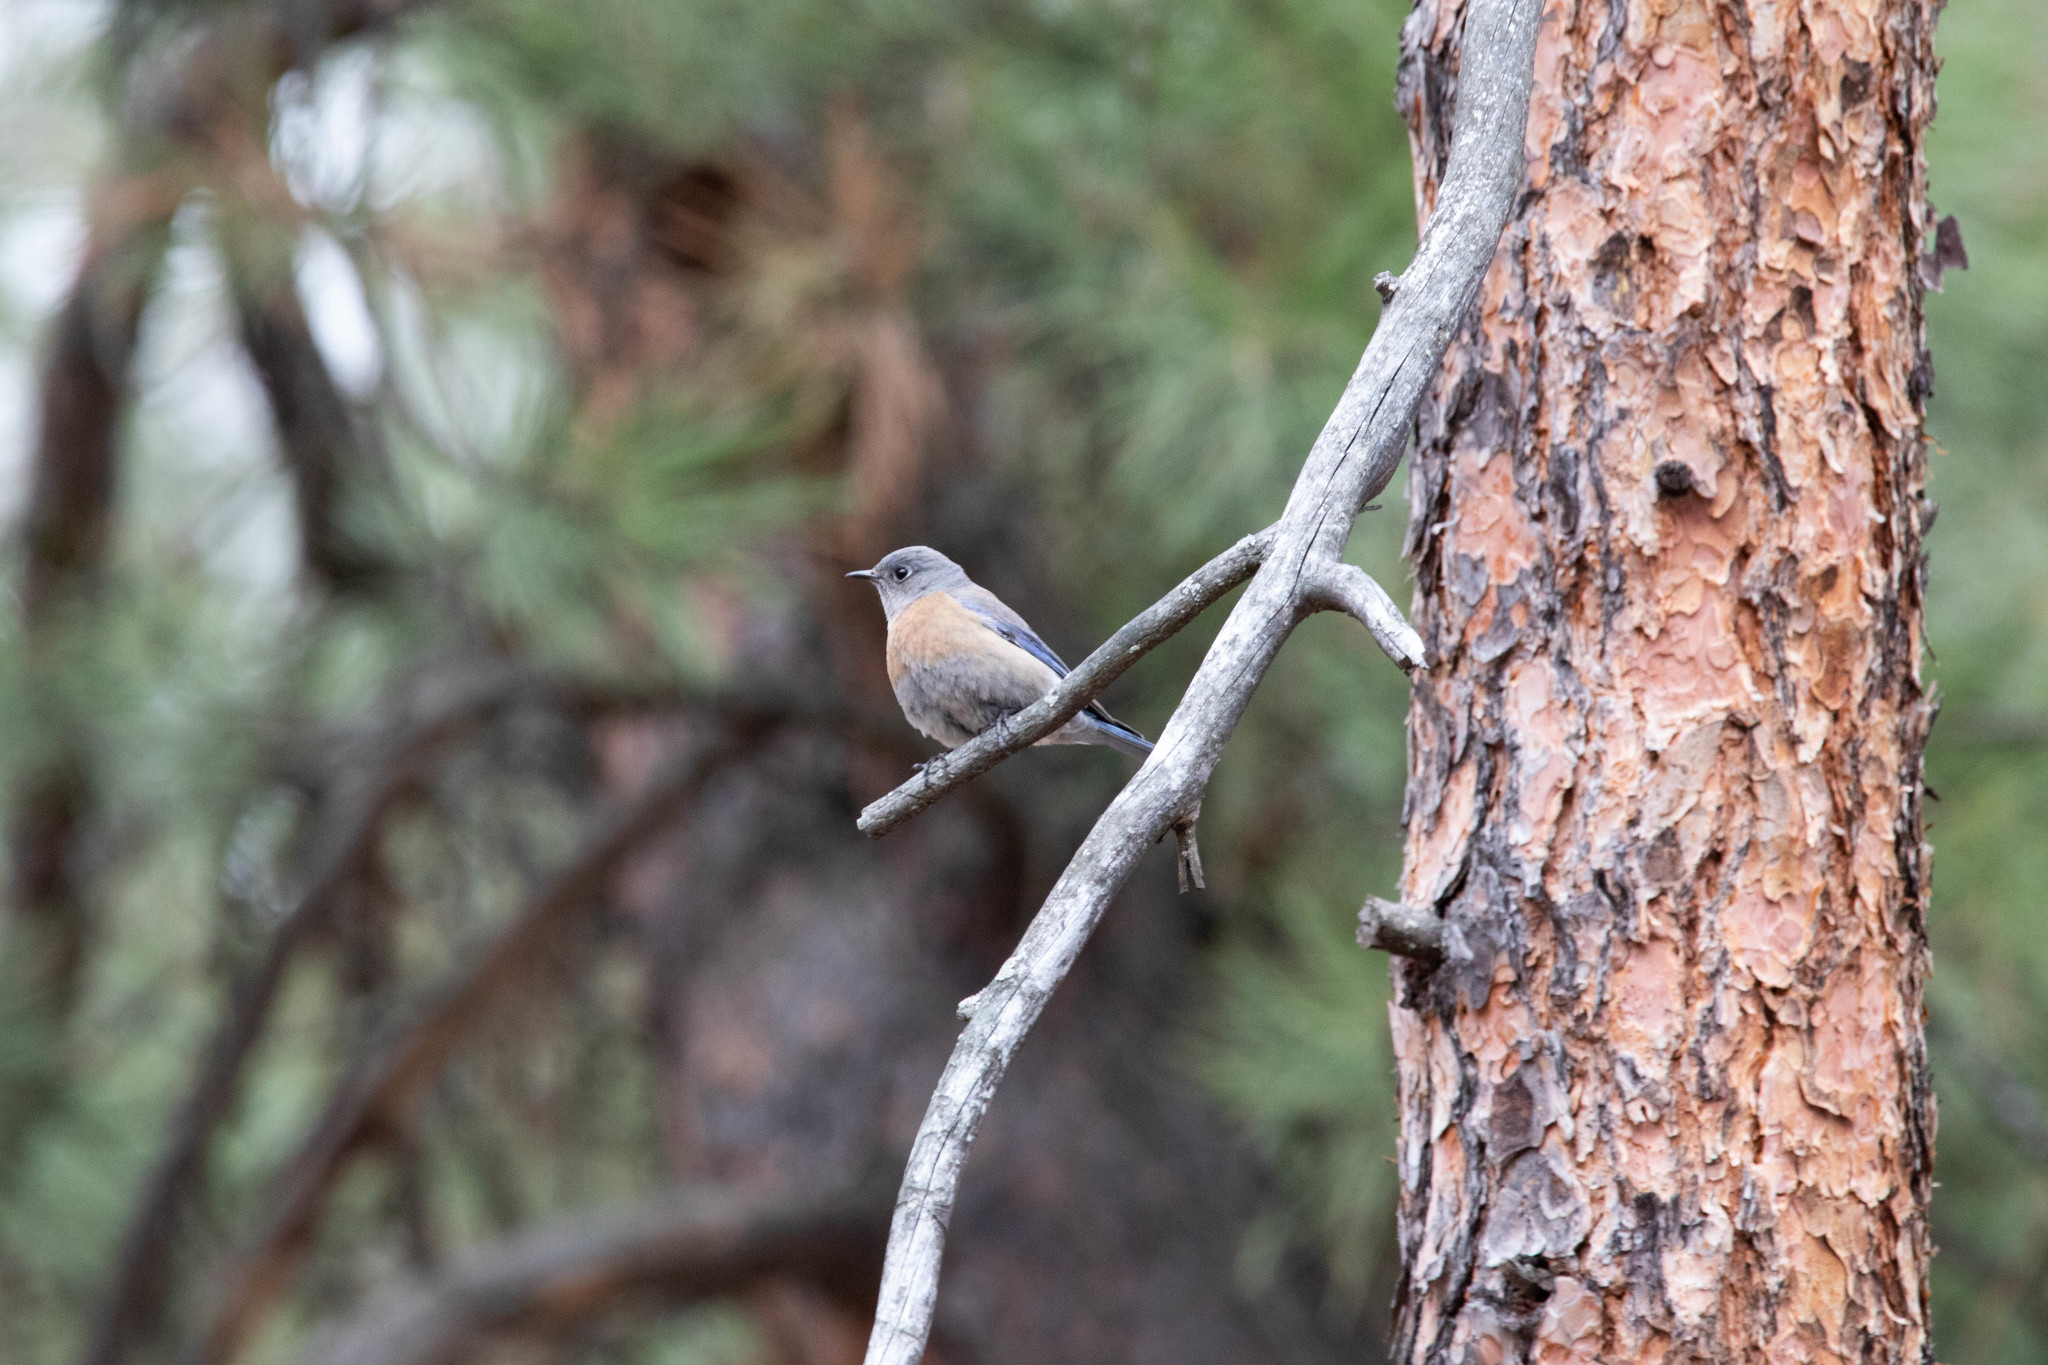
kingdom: Animalia
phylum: Chordata
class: Aves
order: Passeriformes
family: Turdidae
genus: Sialia
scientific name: Sialia mexicana
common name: Western bluebird
